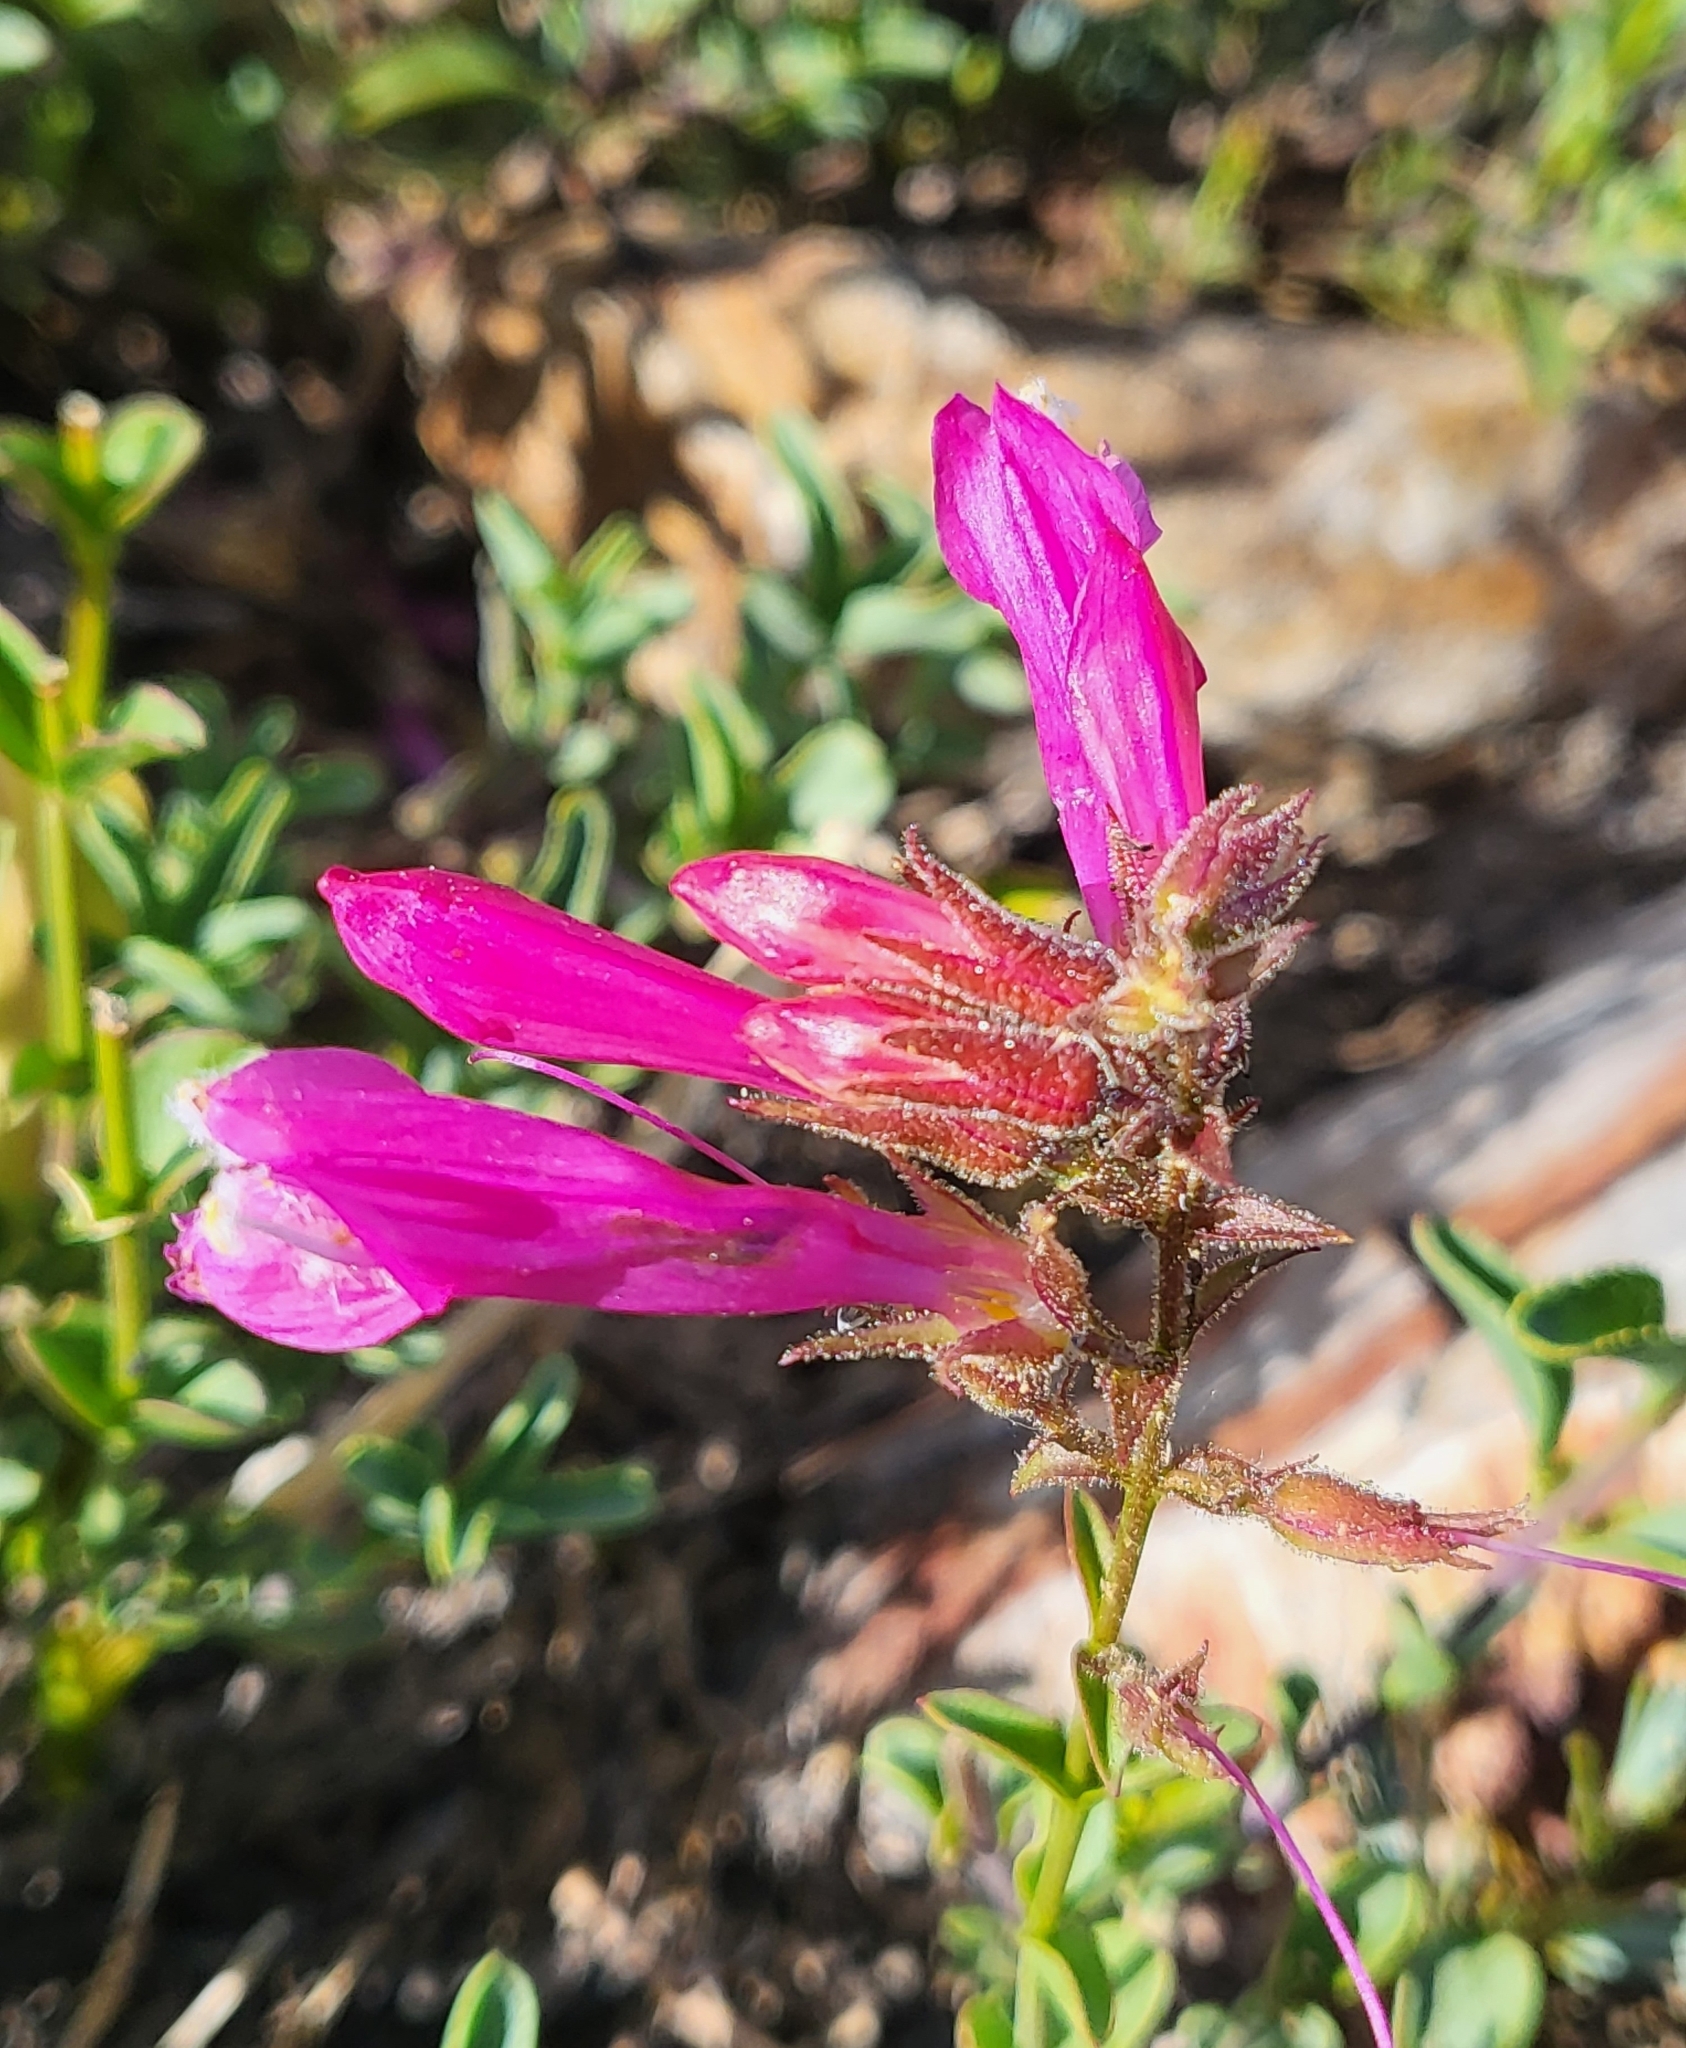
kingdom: Plantae
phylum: Tracheophyta
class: Magnoliopsida
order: Lamiales
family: Plantaginaceae
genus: Penstemon
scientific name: Penstemon newberryi
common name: Mountain-pride
